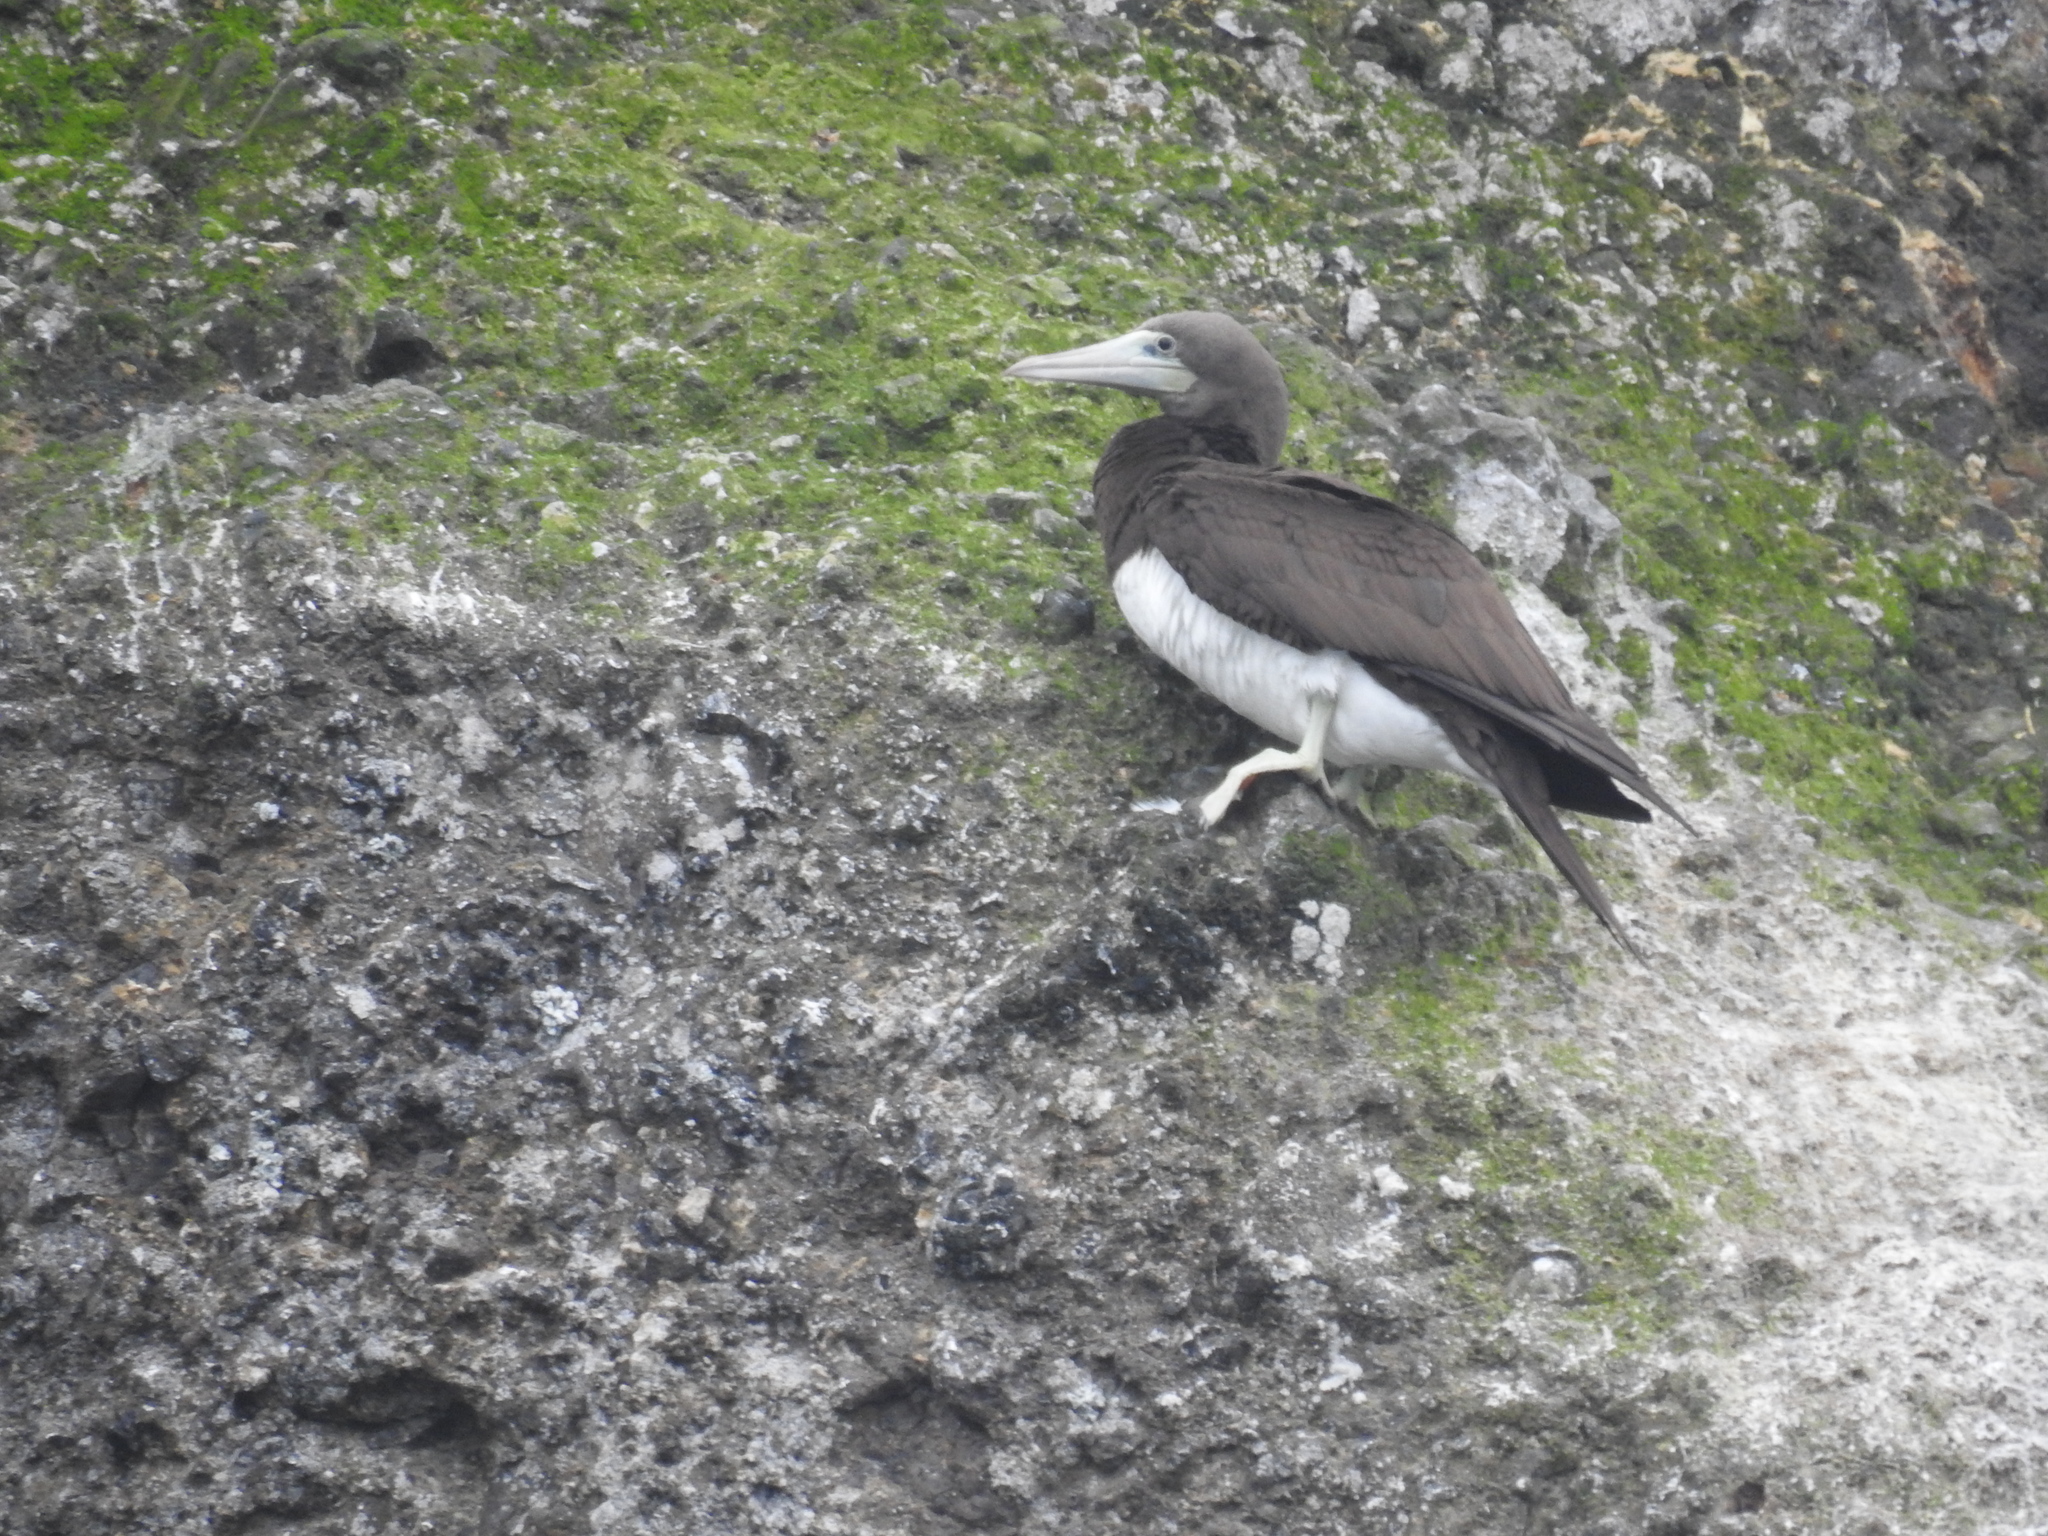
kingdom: Animalia
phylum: Chordata
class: Aves
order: Suliformes
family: Sulidae
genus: Sula
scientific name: Sula leucogaster
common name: Brown booby
